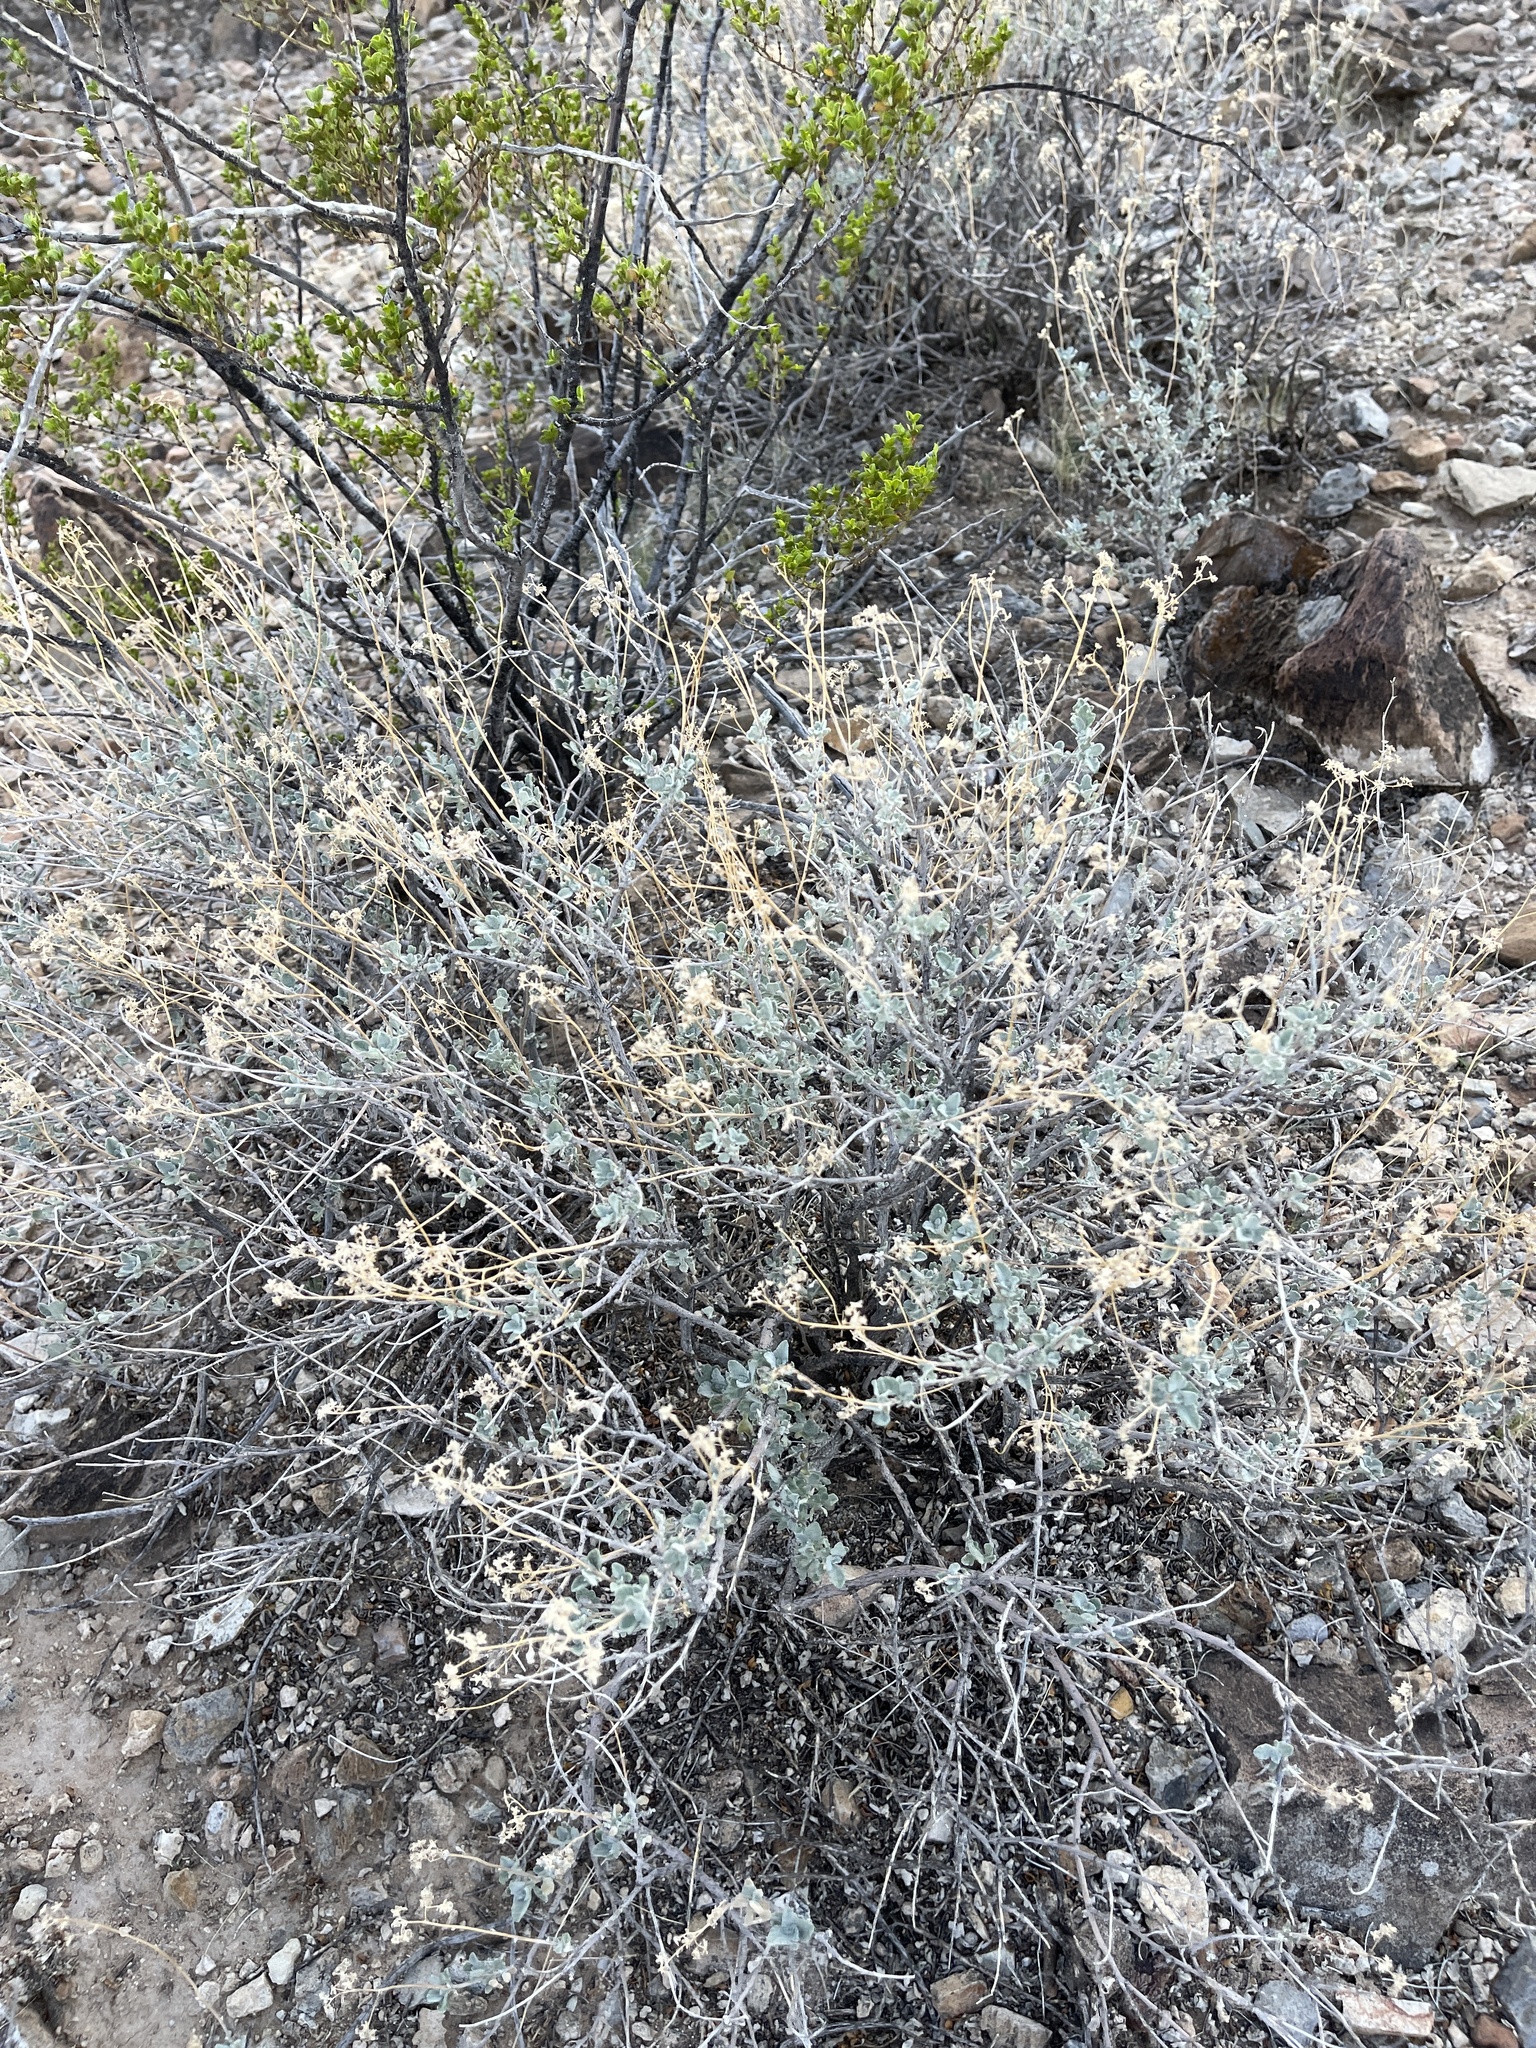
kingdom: Plantae
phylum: Tracheophyta
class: Magnoliopsida
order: Asterales
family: Asteraceae
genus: Parthenium
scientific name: Parthenium incanum
